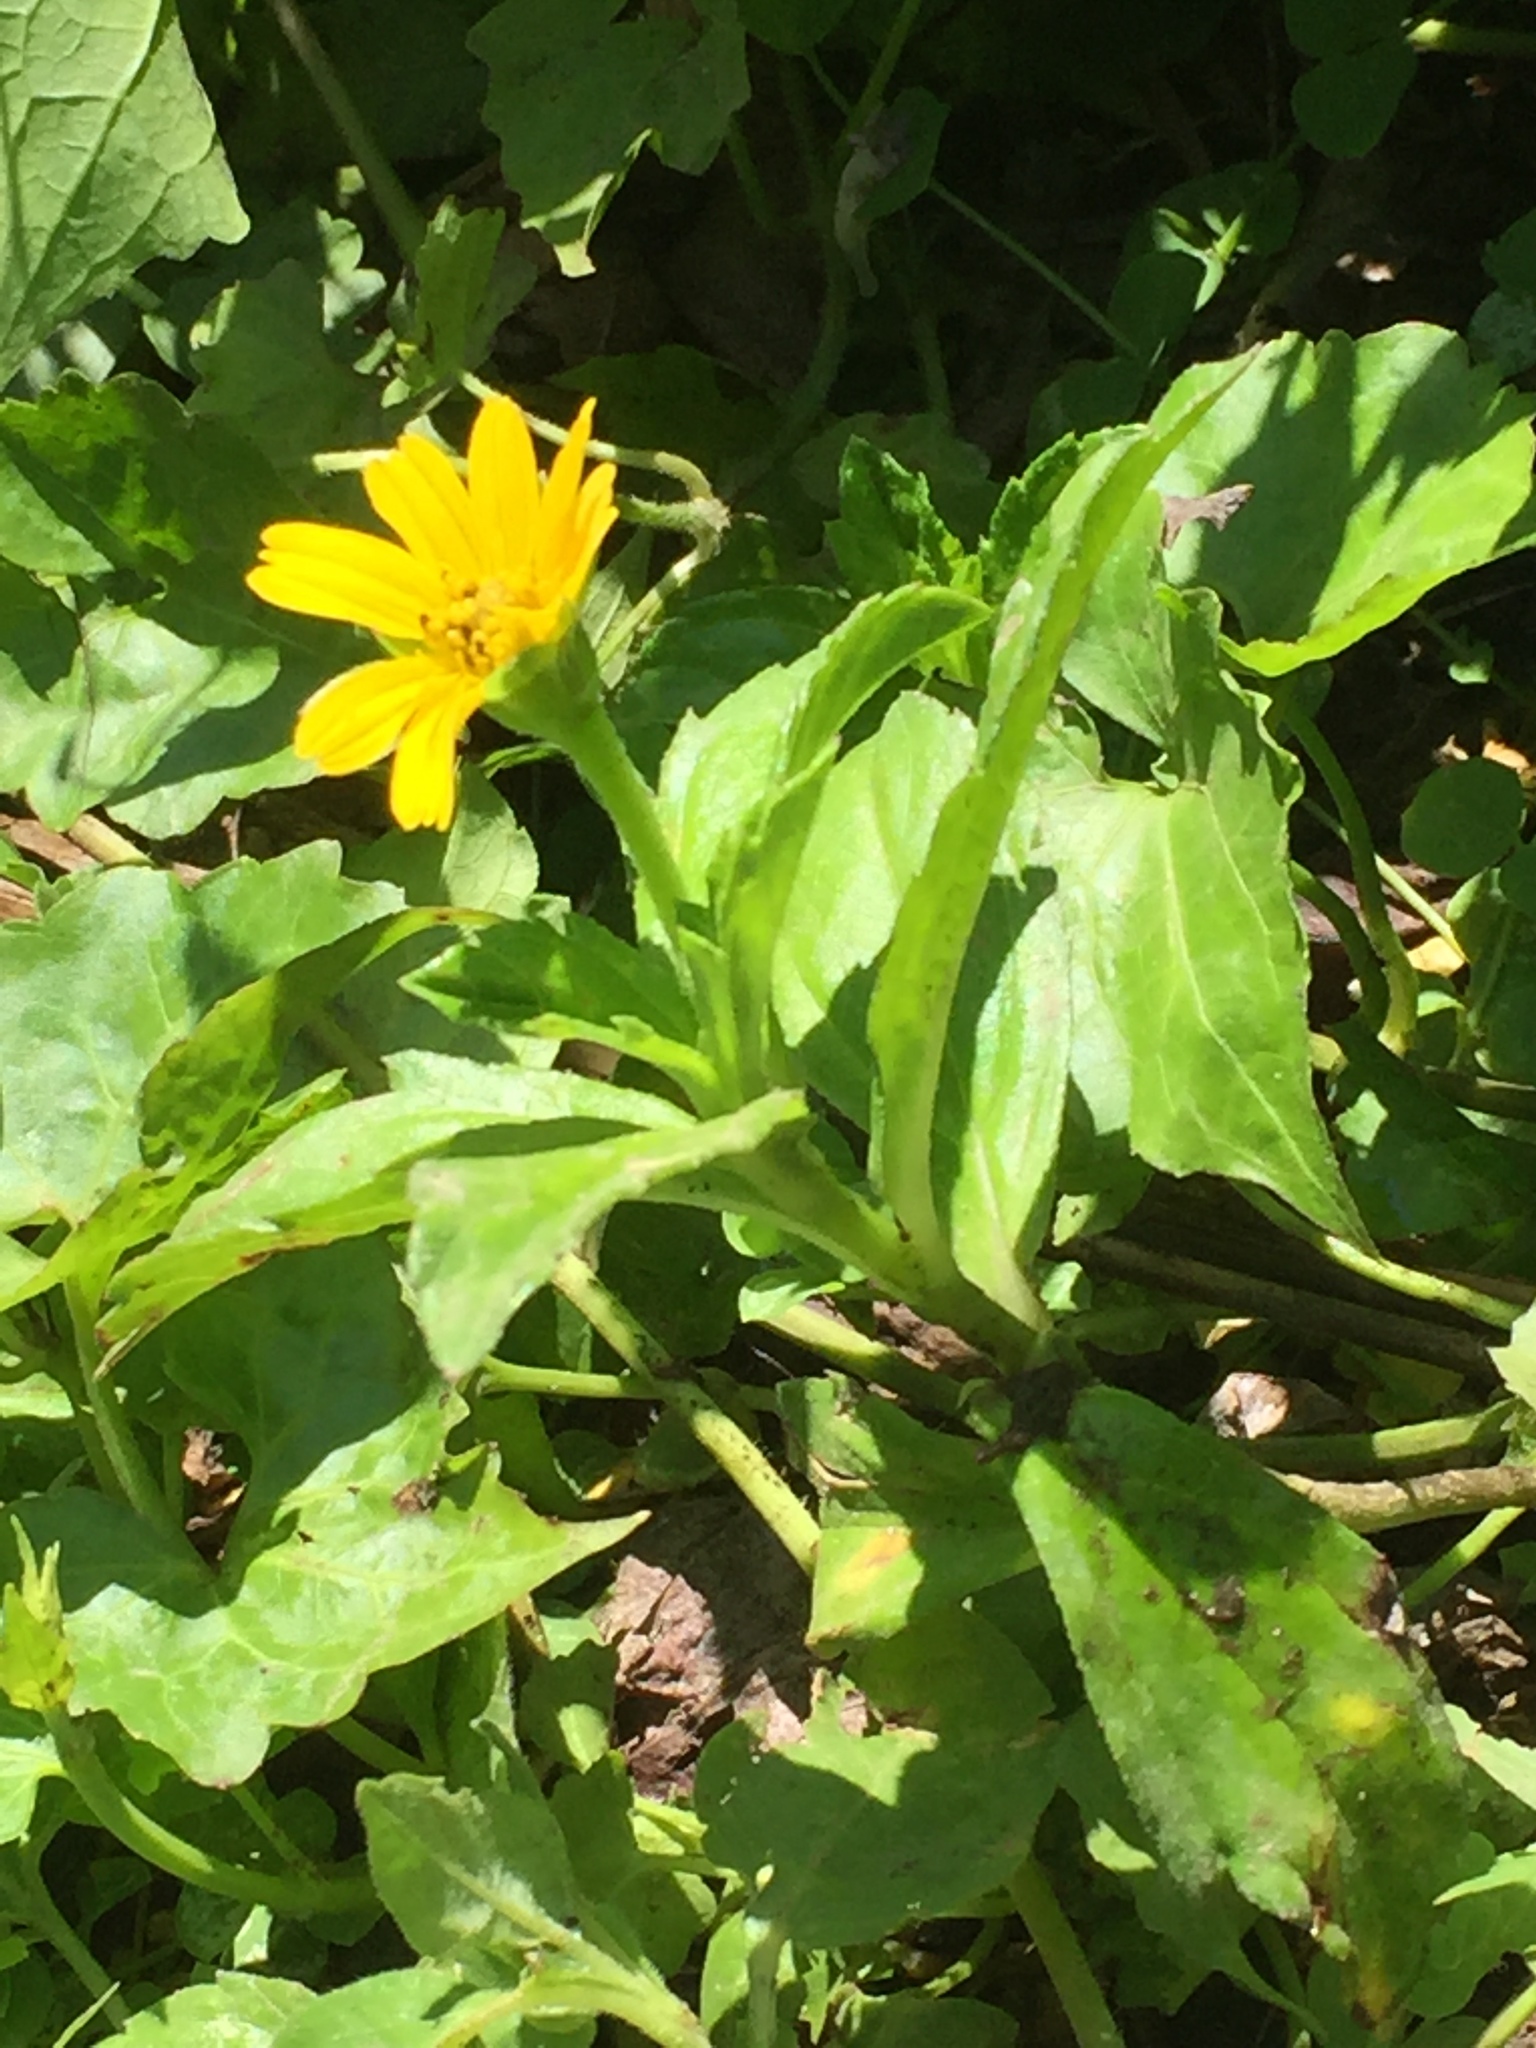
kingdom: Plantae
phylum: Tracheophyta
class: Magnoliopsida
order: Asterales
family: Asteraceae
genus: Sphagneticola
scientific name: Sphagneticola trilobata
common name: Bay biscayne creeping-oxeye
